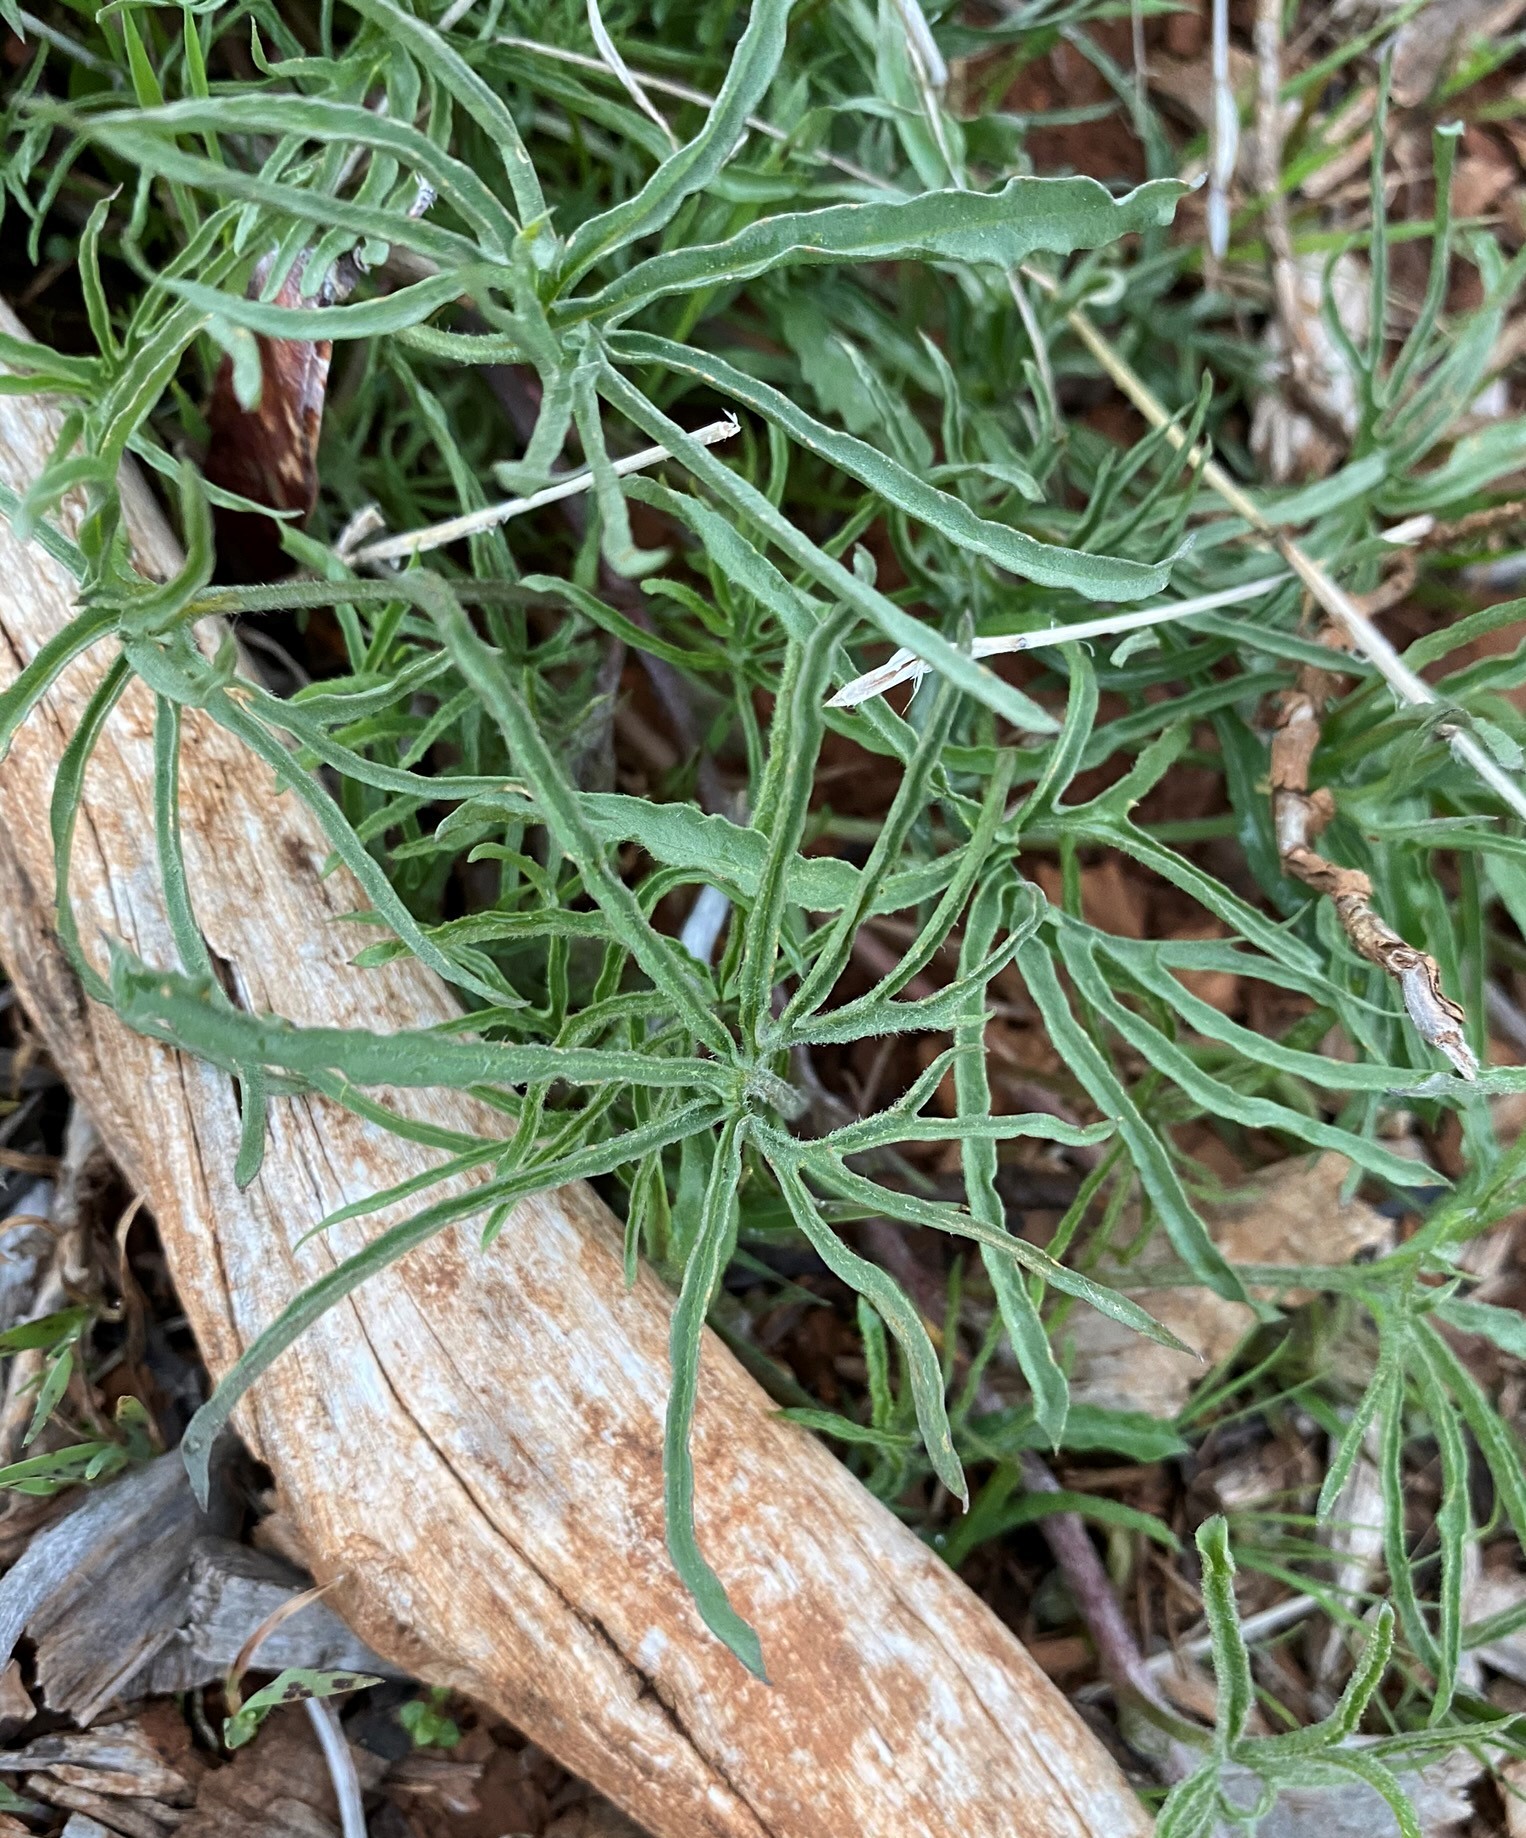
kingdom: Plantae
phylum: Tracheophyta
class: Magnoliopsida
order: Solanales
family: Convolvulaceae
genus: Calystegia
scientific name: Calystegia stebbinsii
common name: Stebbins's-morning-glory
